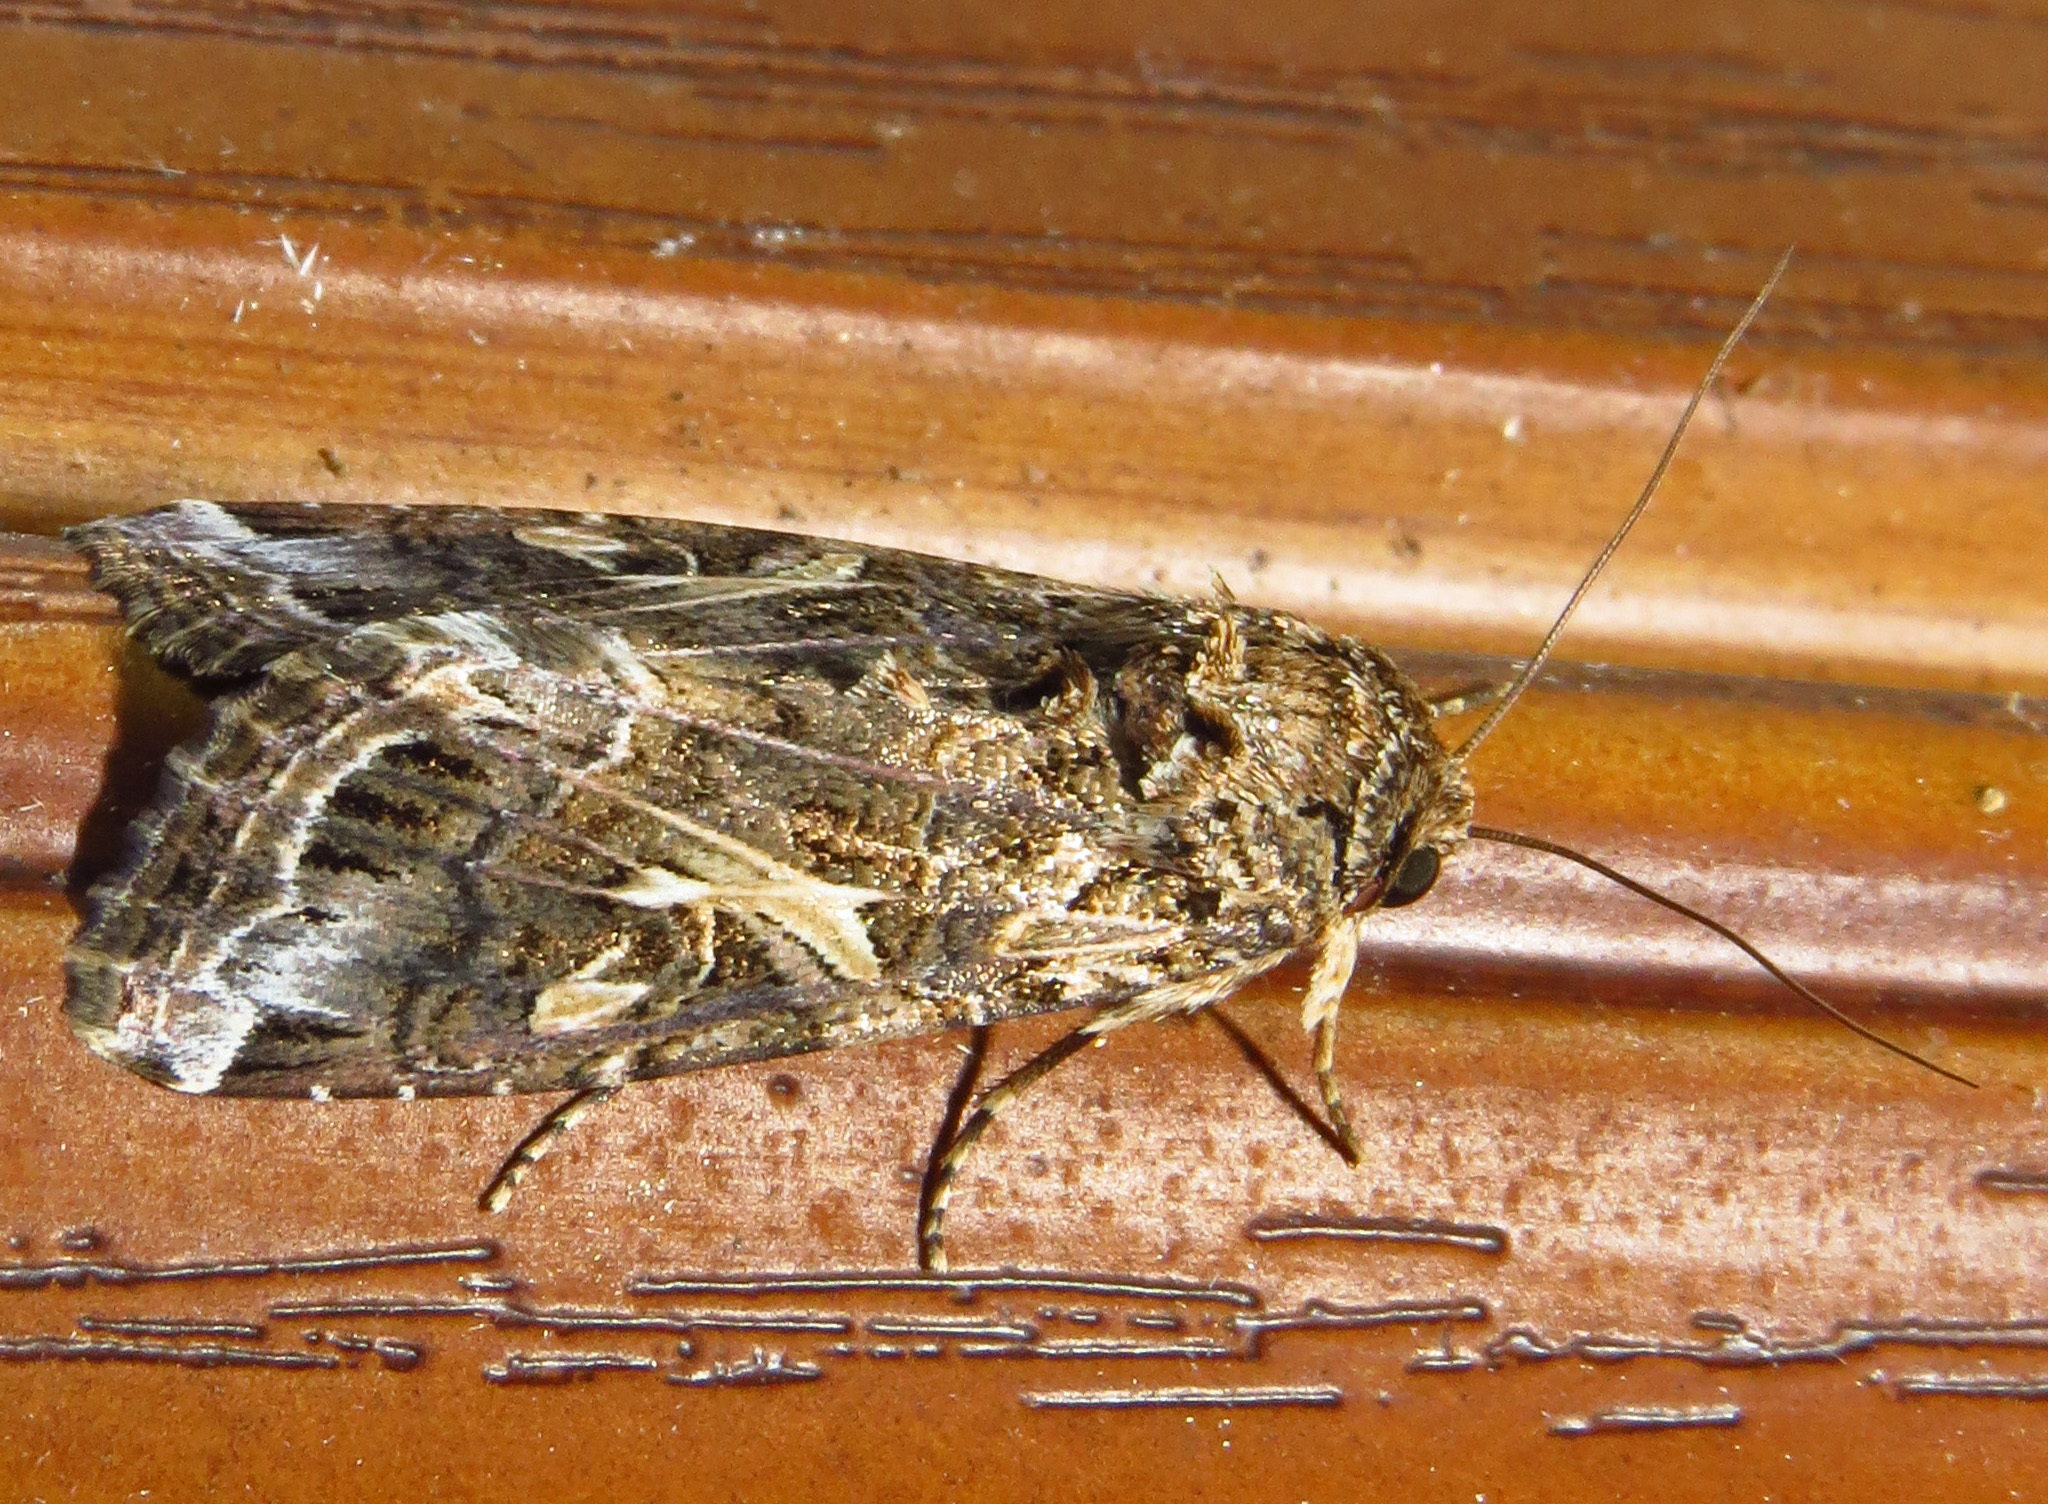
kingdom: Animalia
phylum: Arthropoda
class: Insecta
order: Lepidoptera
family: Noctuidae
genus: Spodoptera
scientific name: Spodoptera ornithogalli
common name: Yellow-striped armyworm
